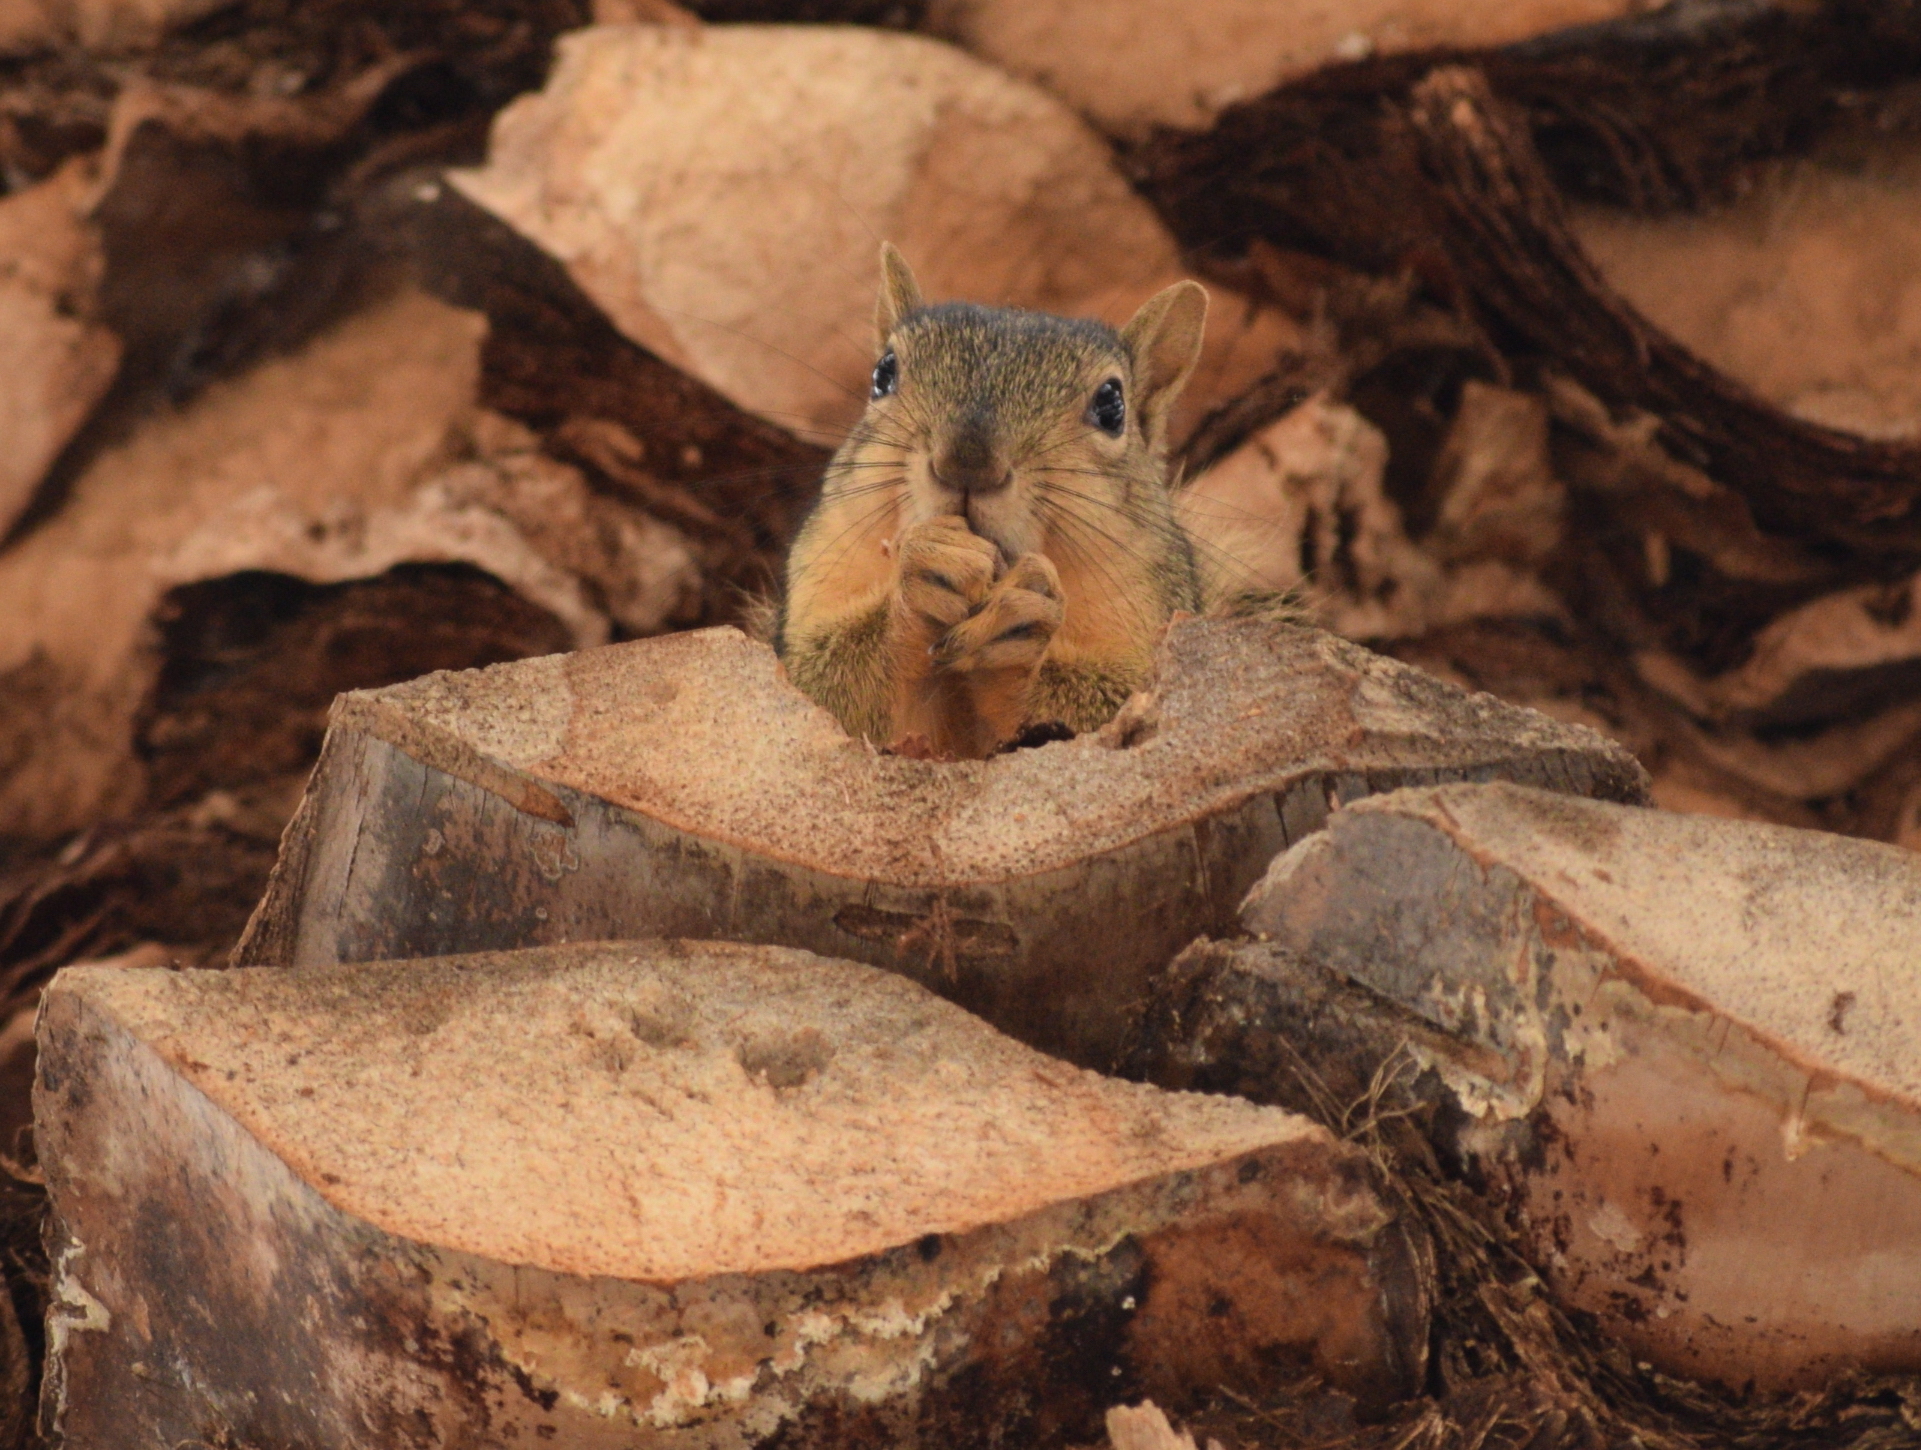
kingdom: Animalia
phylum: Chordata
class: Mammalia
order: Rodentia
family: Sciuridae
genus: Sciurus
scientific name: Sciurus niger
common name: Fox squirrel
